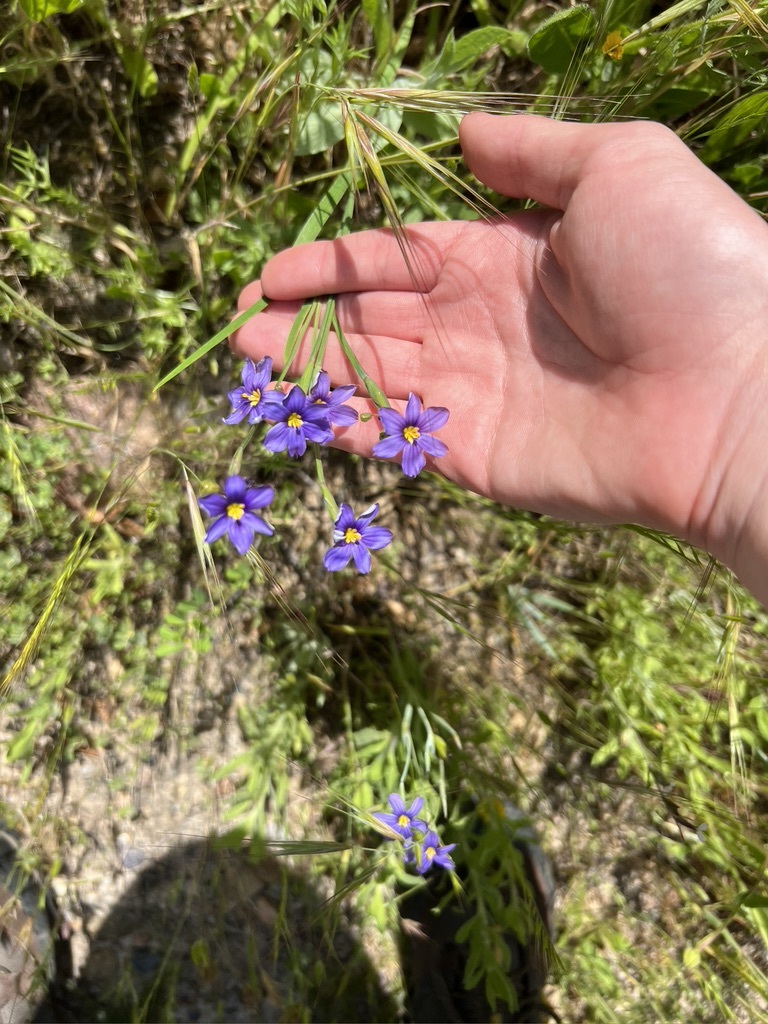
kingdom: Plantae
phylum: Tracheophyta
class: Liliopsida
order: Asparagales
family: Iridaceae
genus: Sisyrinchium
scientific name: Sisyrinchium bellum
